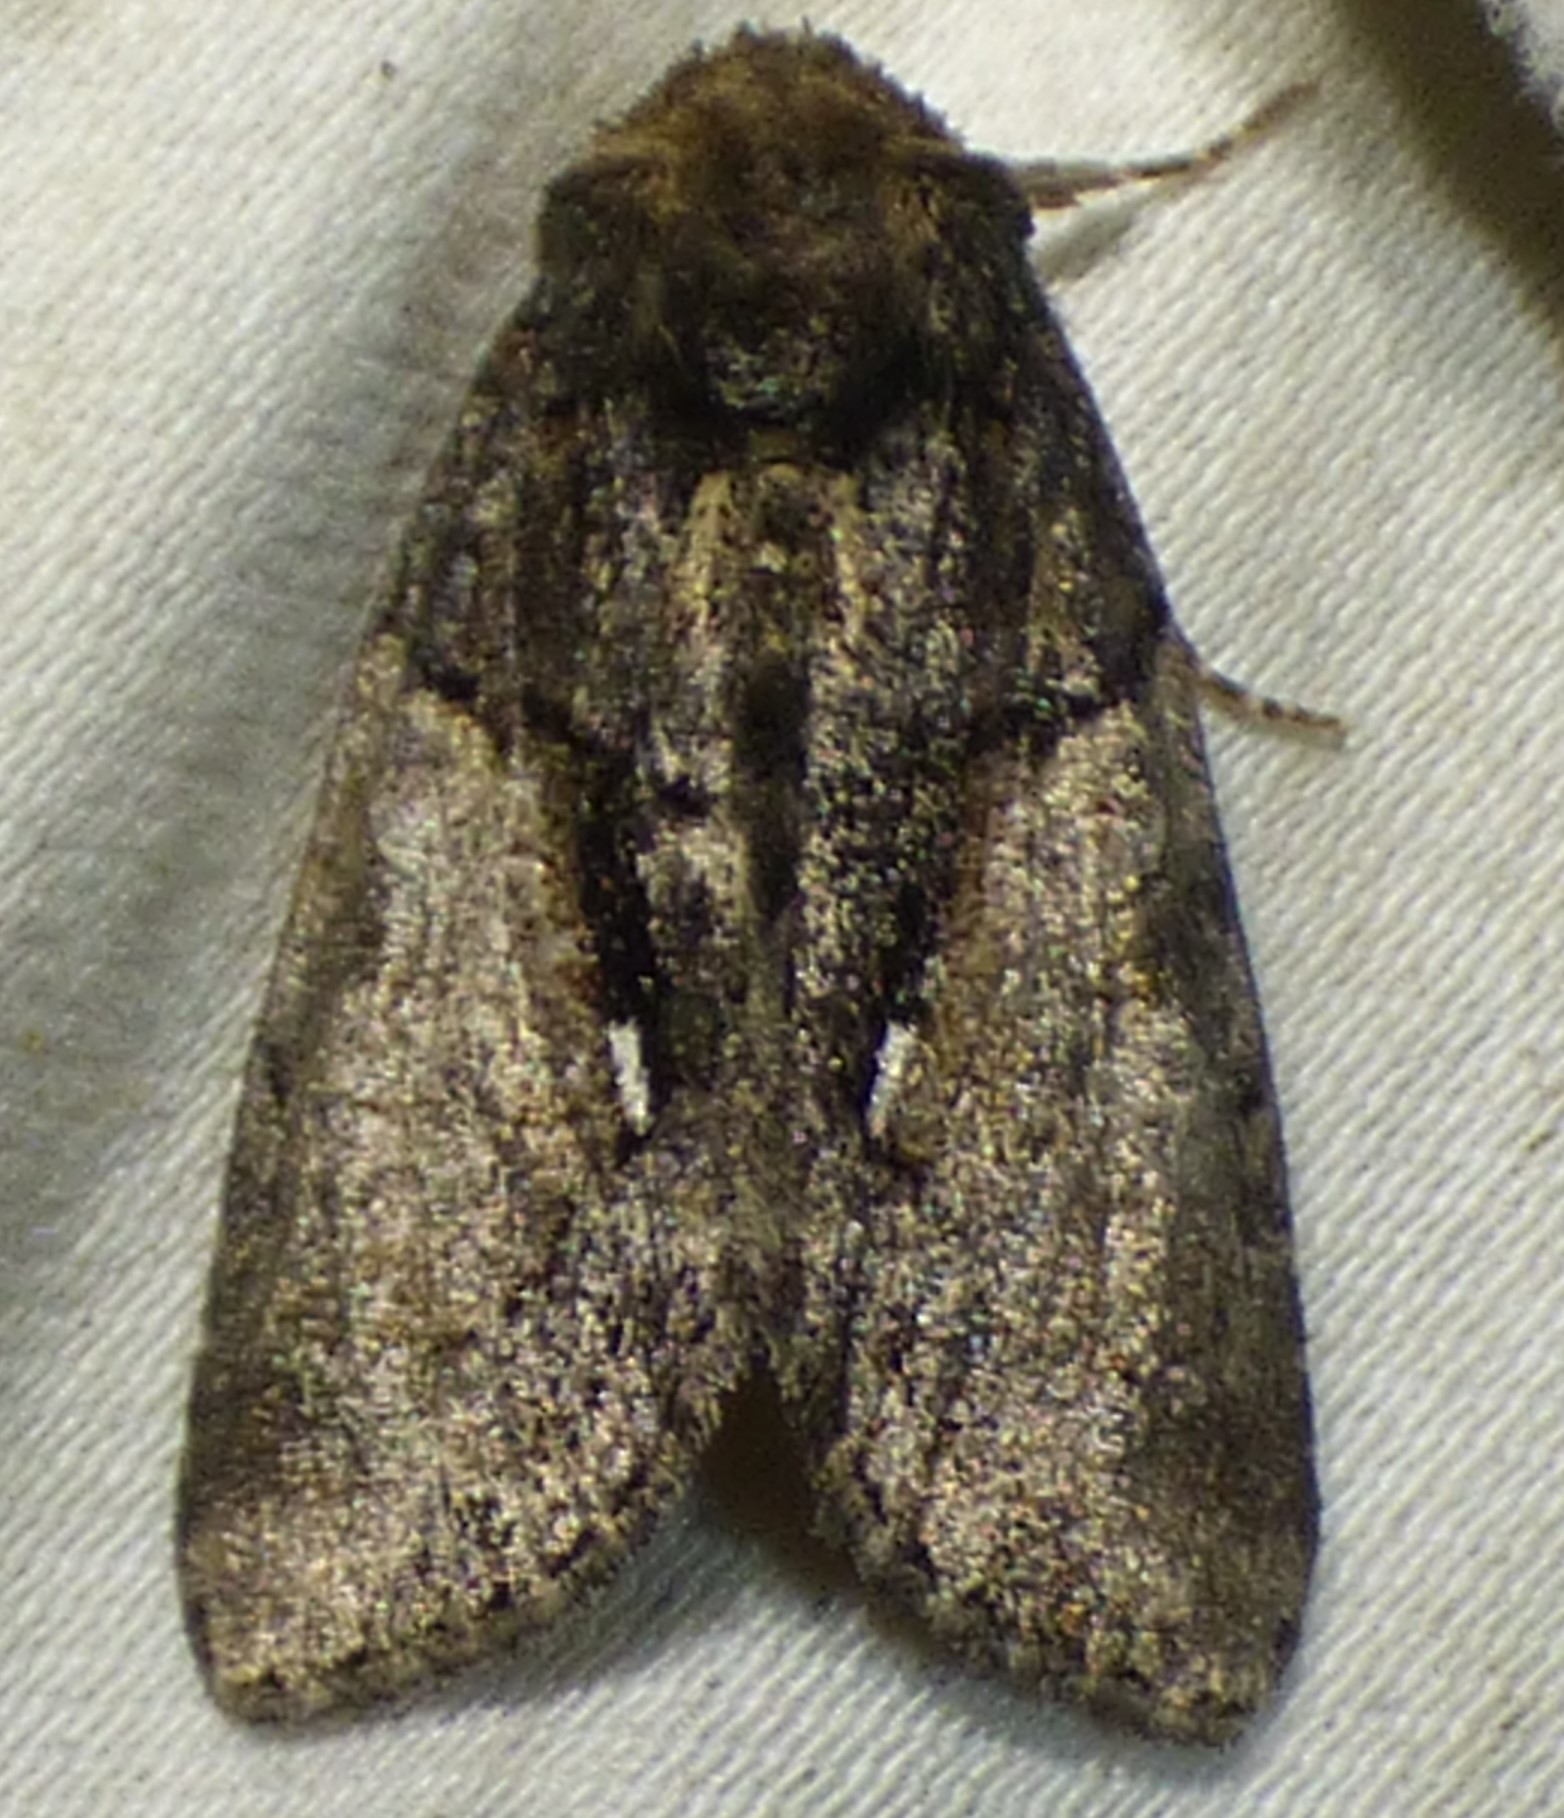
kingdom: Animalia
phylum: Arthropoda
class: Insecta
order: Lepidoptera
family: Noctuidae
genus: Chytonix
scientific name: Chytonix palliatricula
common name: Cloaked marvel
